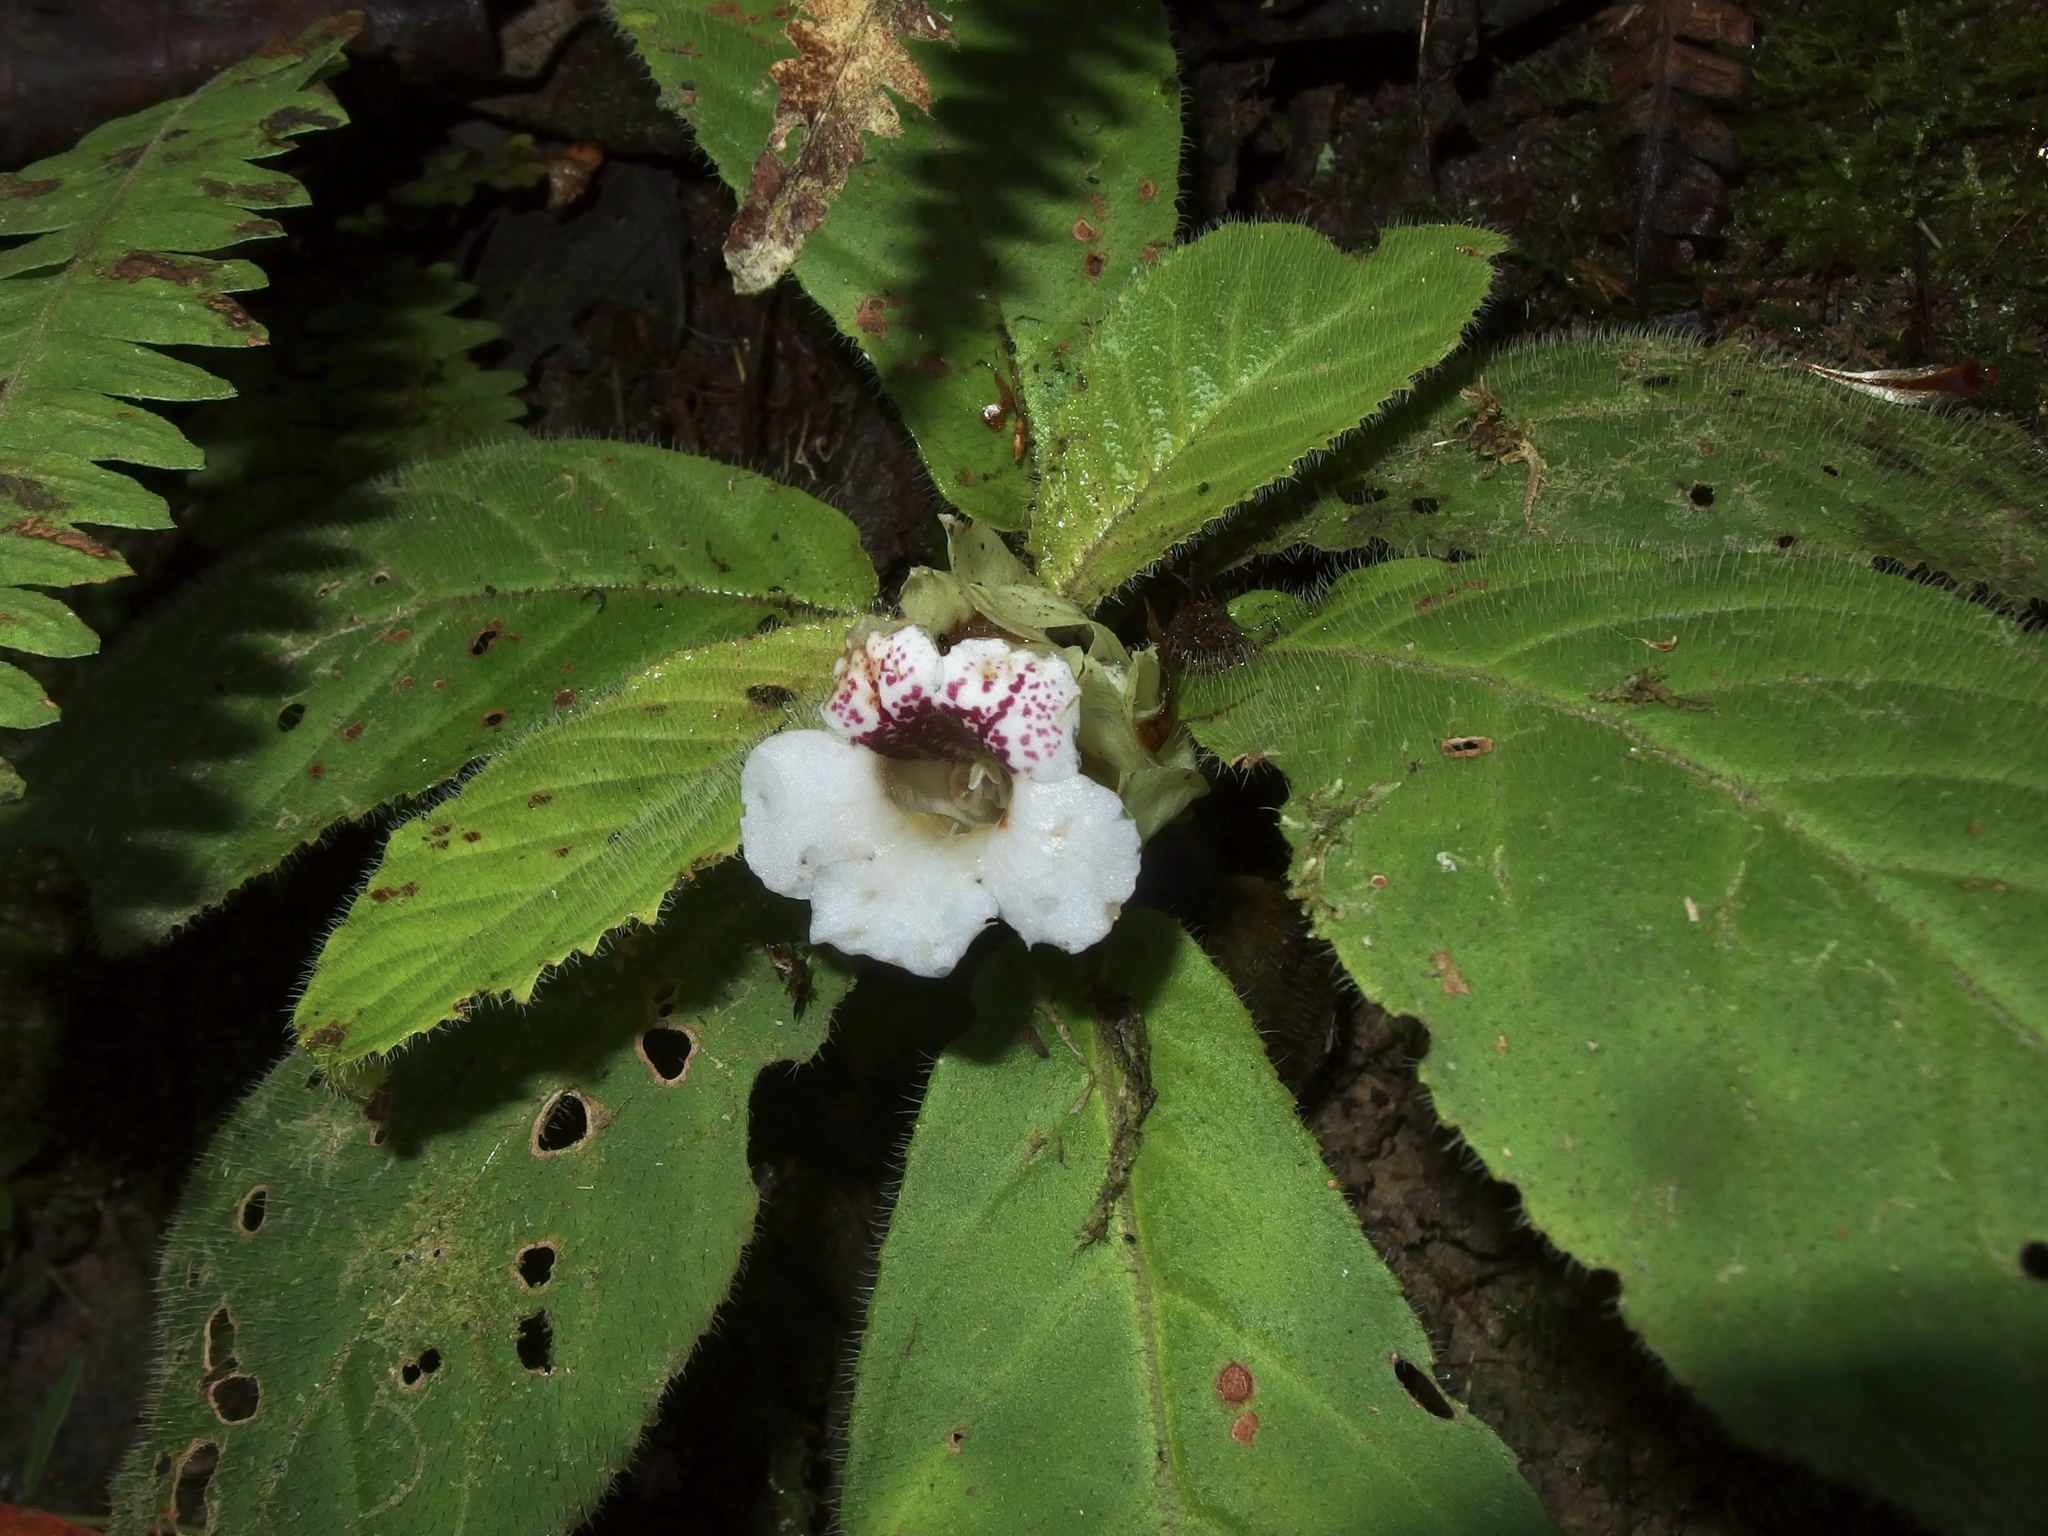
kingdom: Plantae
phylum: Tracheophyta
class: Magnoliopsida
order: Lamiales
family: Gesneriaceae
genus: Nautilocalyx
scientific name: Nautilocalyx ecuadoranus
